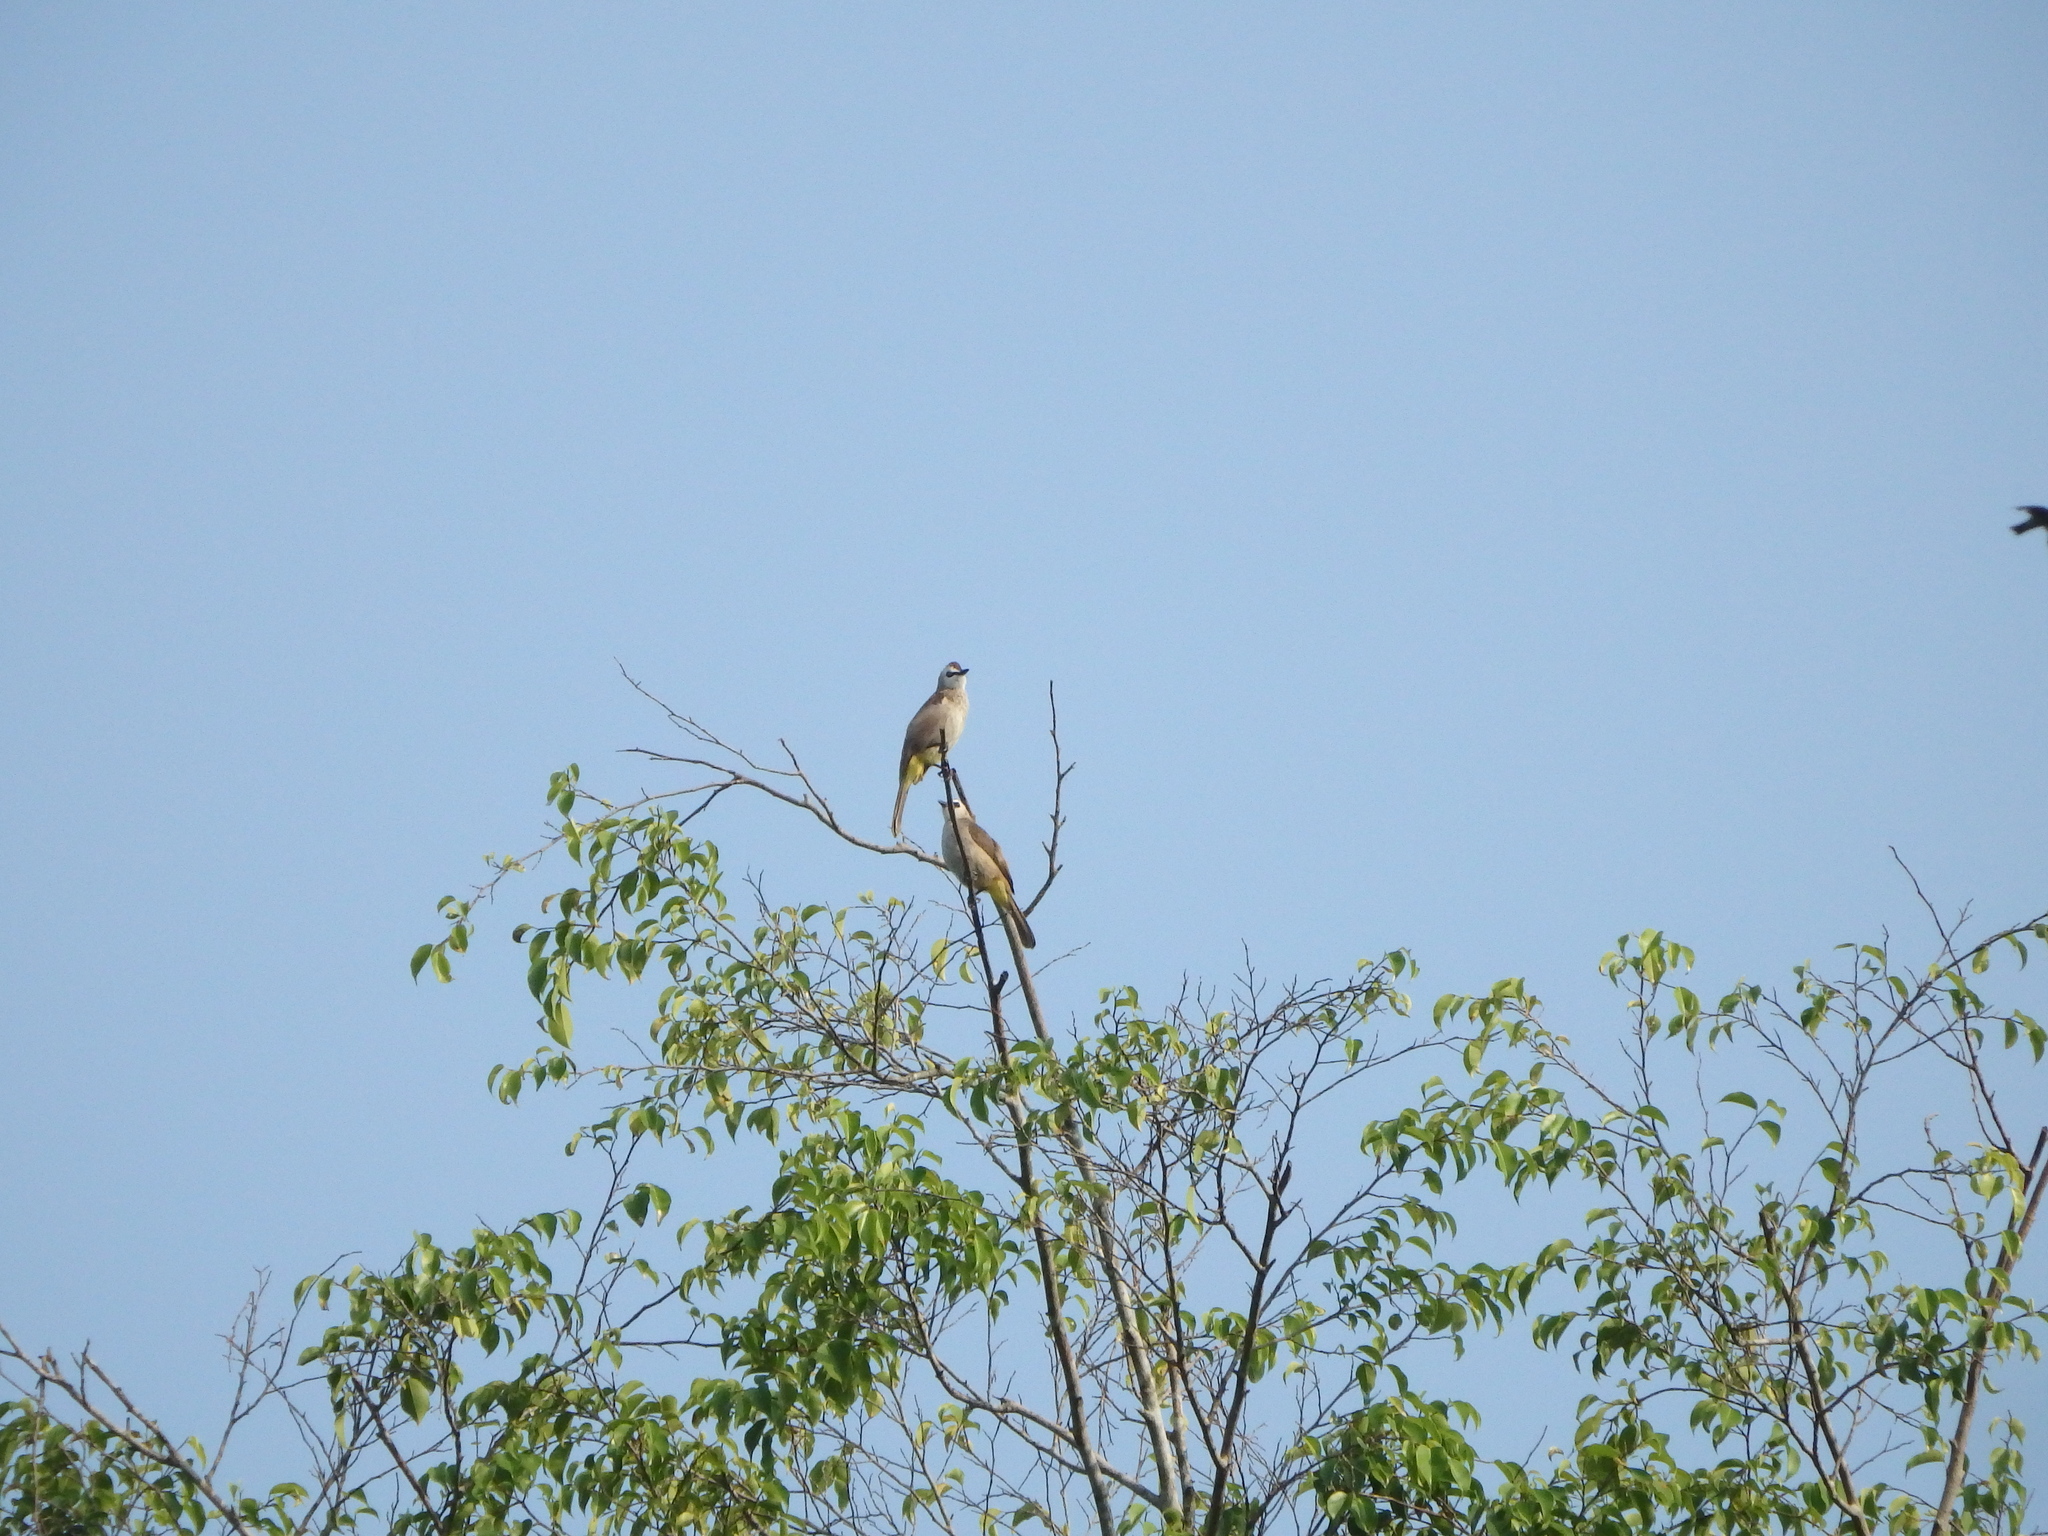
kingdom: Animalia
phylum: Chordata
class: Aves
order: Passeriformes
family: Pycnonotidae
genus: Pycnonotus
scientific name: Pycnonotus goiavier
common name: Yellow-vented bulbul
